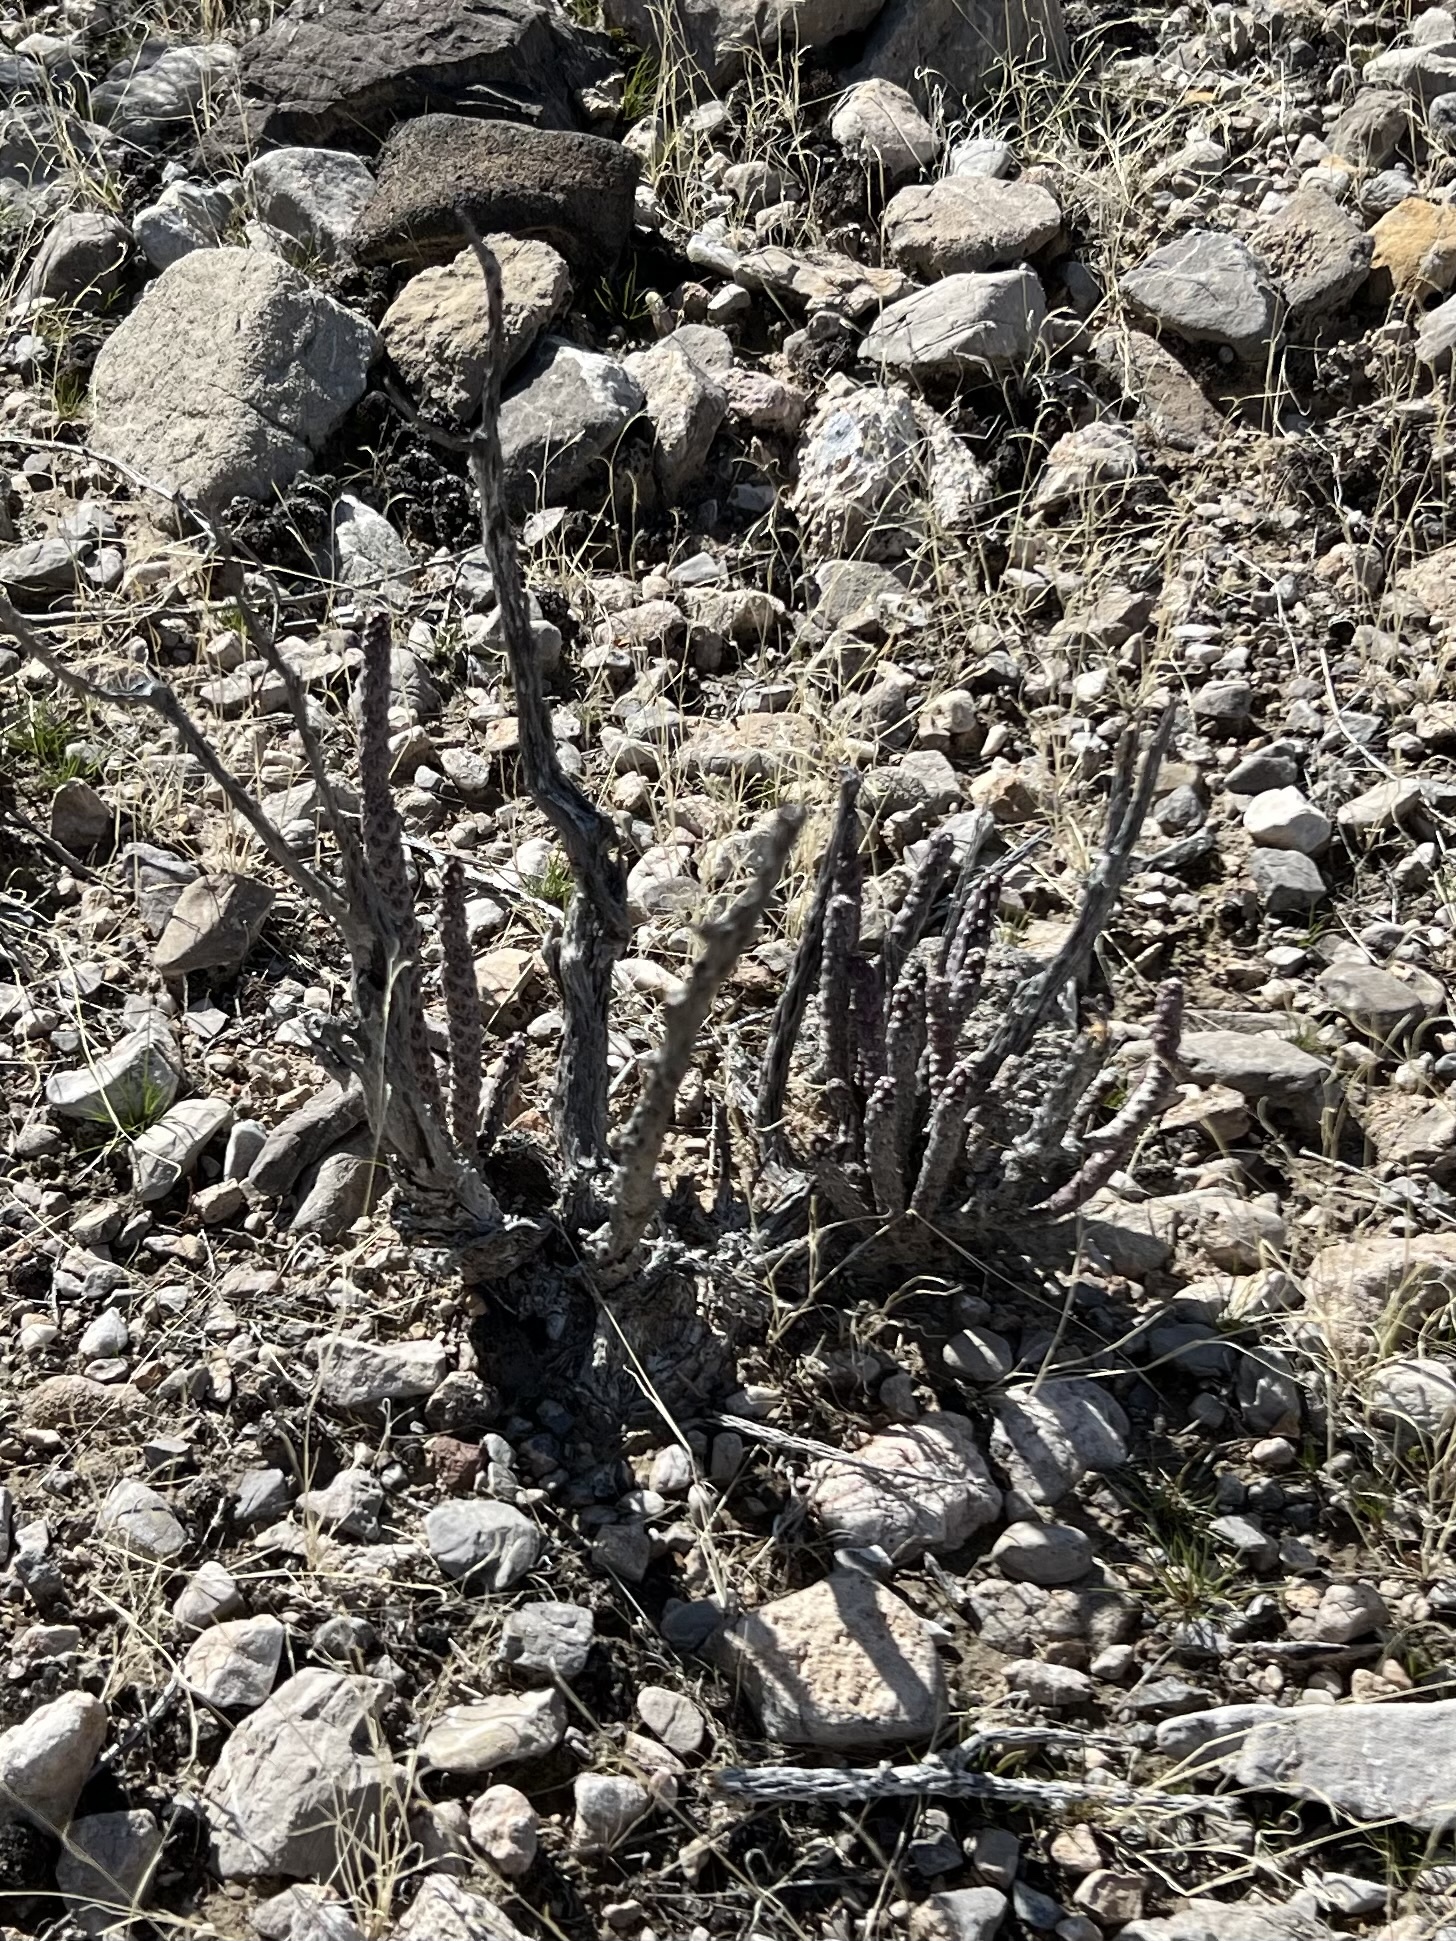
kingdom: Plantae
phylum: Tracheophyta
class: Magnoliopsida
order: Caryophyllales
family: Cactaceae
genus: Cylindropuntia
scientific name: Cylindropuntia ramosissima
